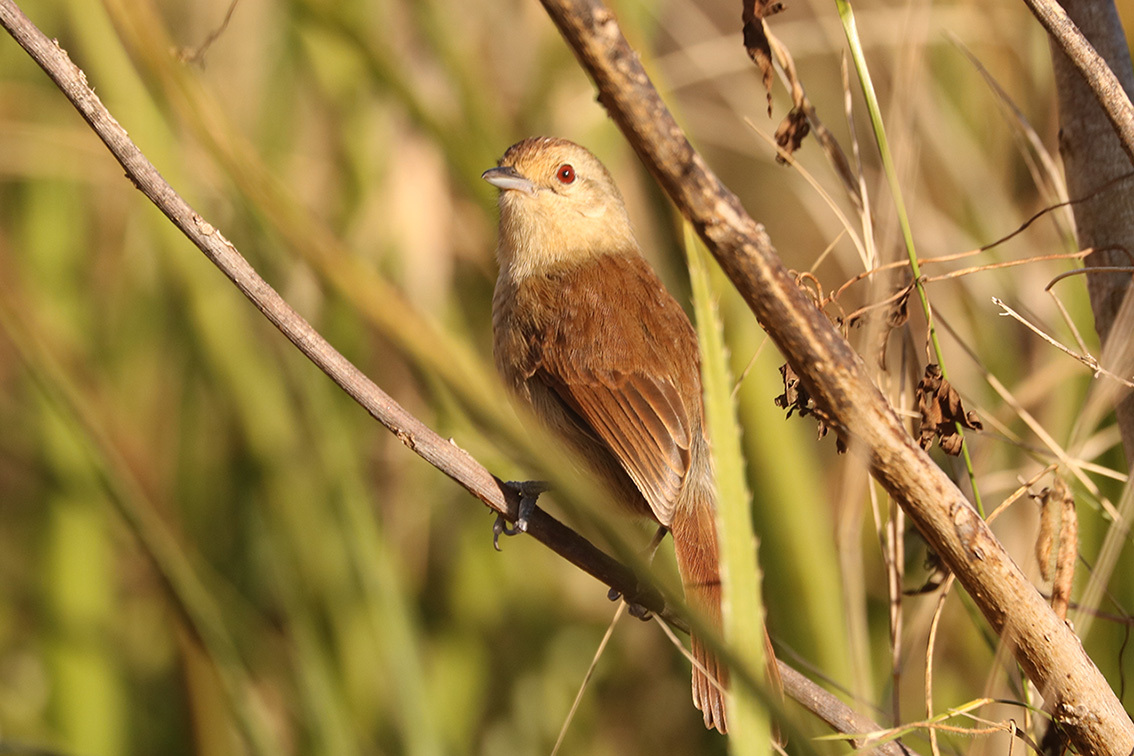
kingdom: Animalia
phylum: Chordata
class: Aves
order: Passeriformes
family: Thamnophilidae
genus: Thamnophilus
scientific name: Thamnophilus ruficapillus
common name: Rufous-capped antshrike
